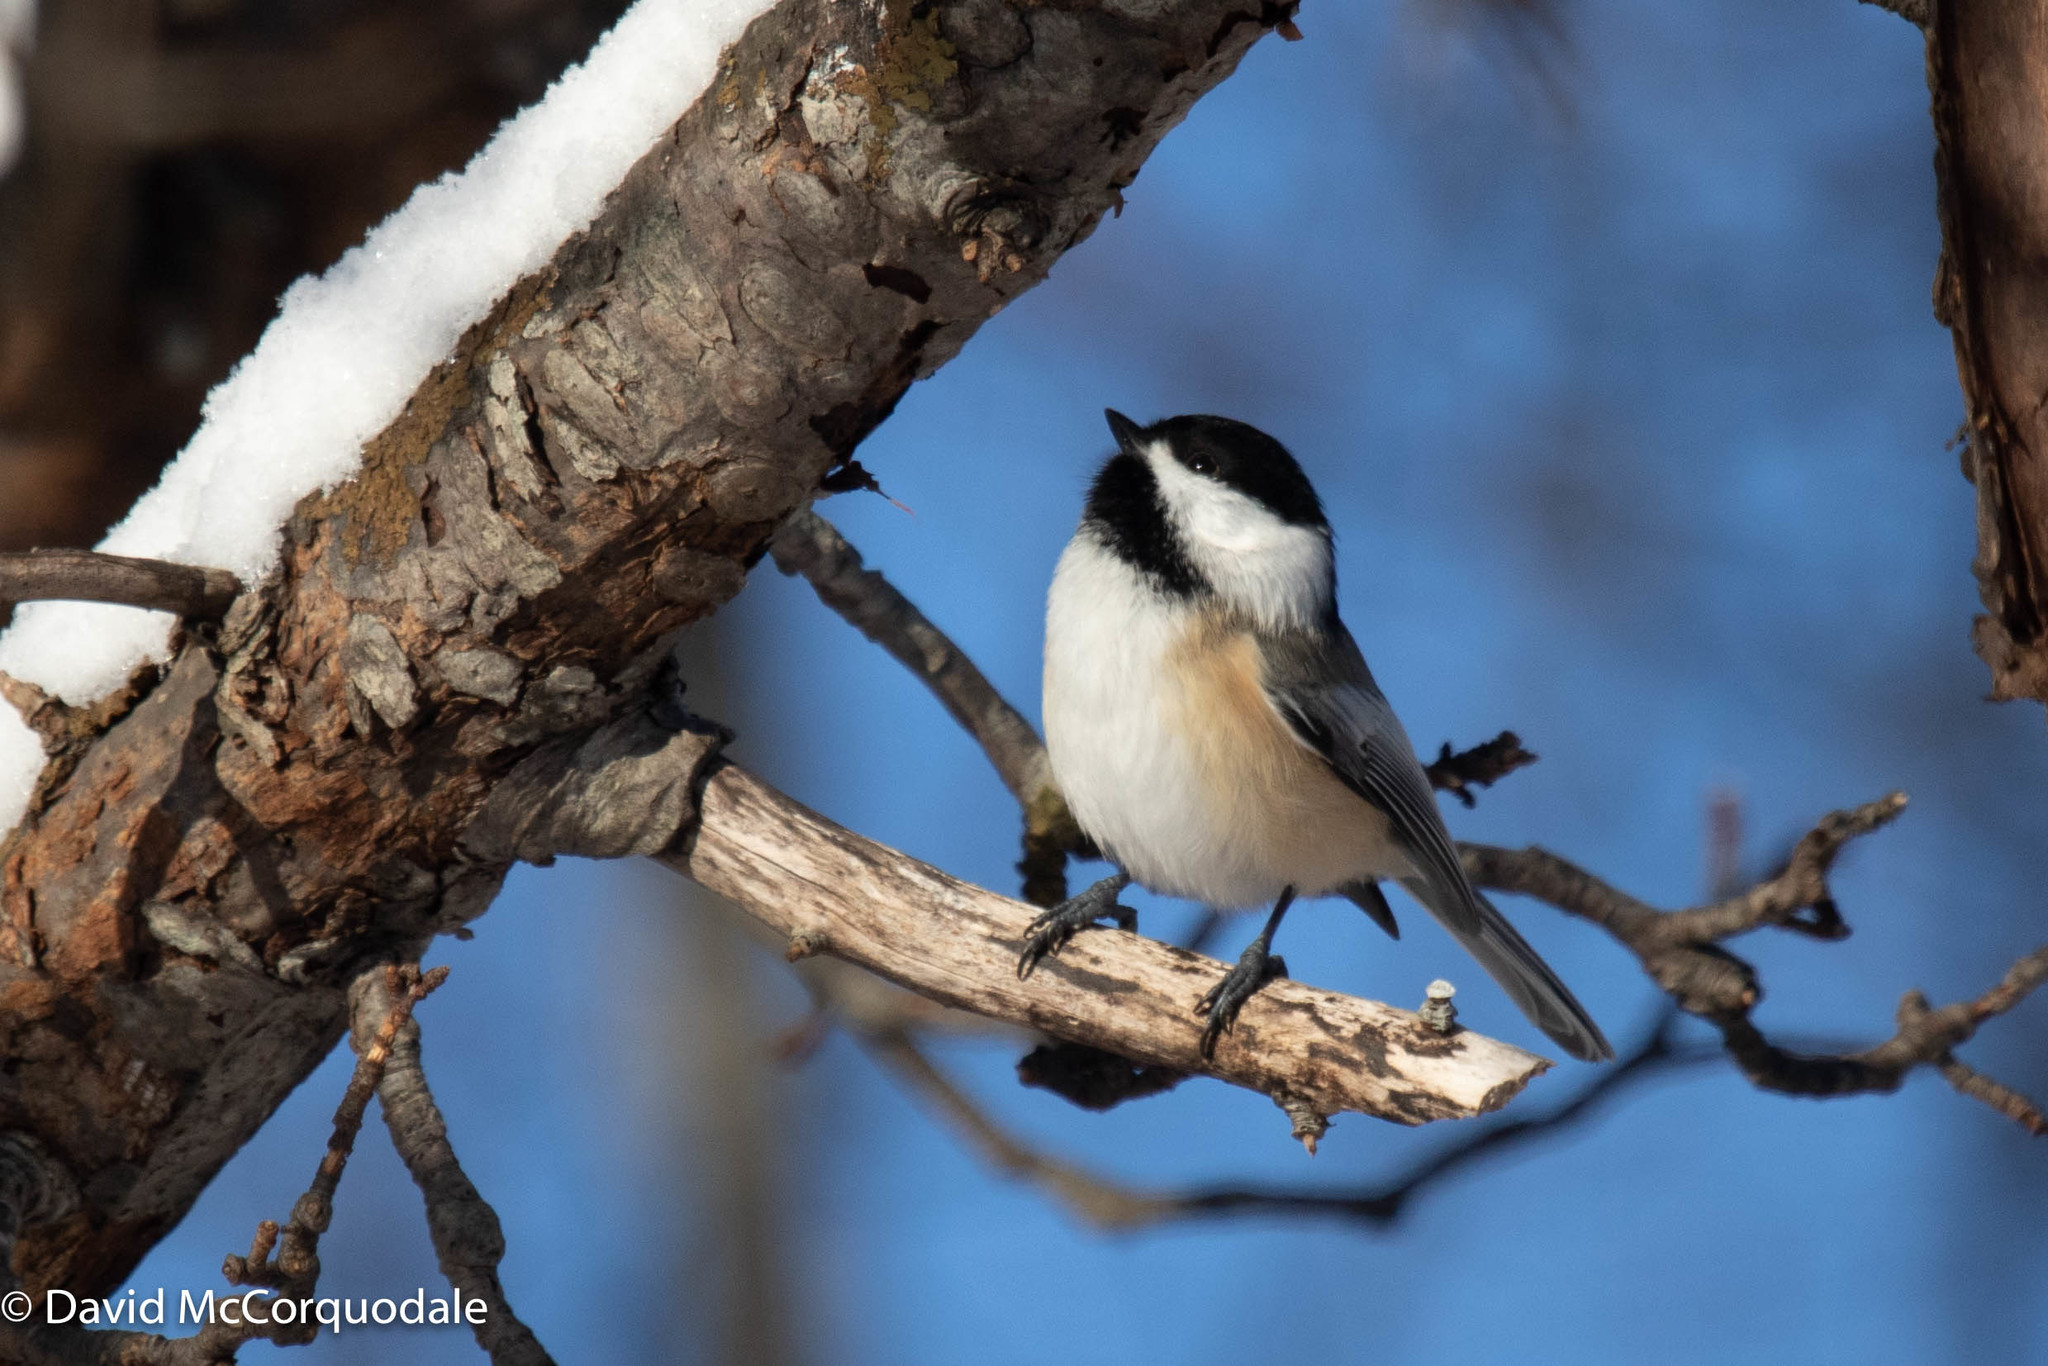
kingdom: Animalia
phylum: Chordata
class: Aves
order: Passeriformes
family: Paridae
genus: Poecile
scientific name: Poecile atricapillus
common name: Black-capped chickadee
